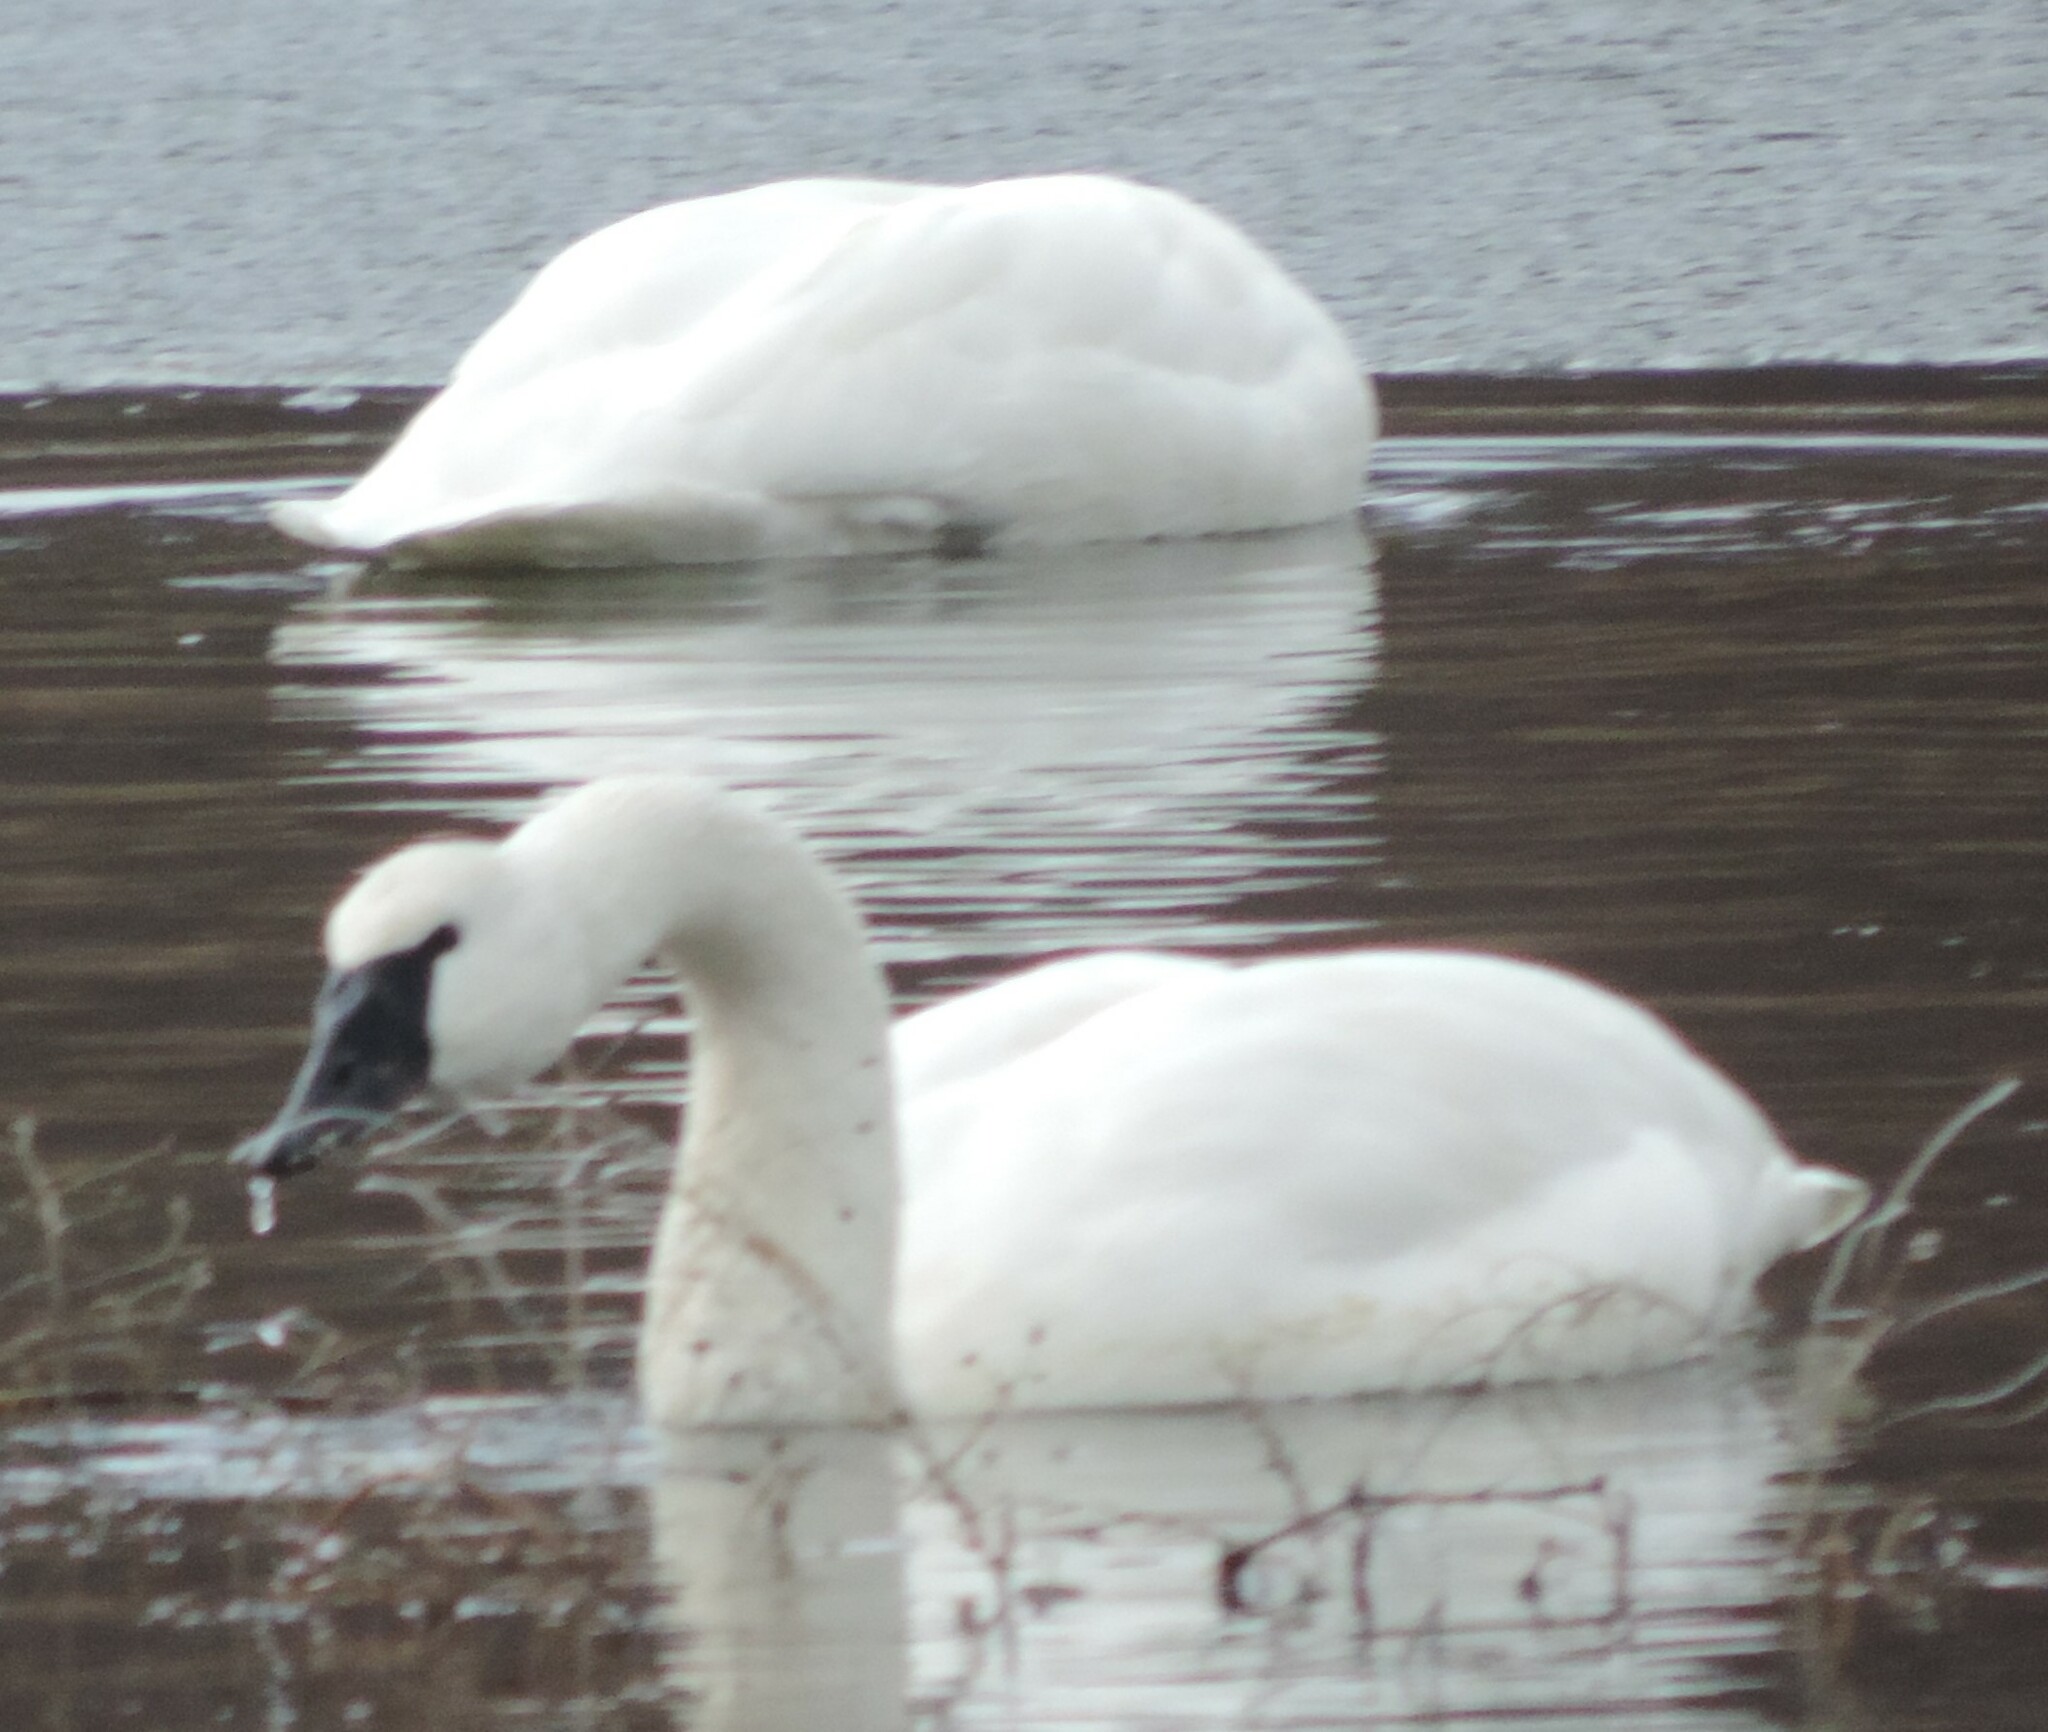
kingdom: Animalia
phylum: Chordata
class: Aves
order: Anseriformes
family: Anatidae
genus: Cygnus
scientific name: Cygnus buccinator
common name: Trumpeter swan
